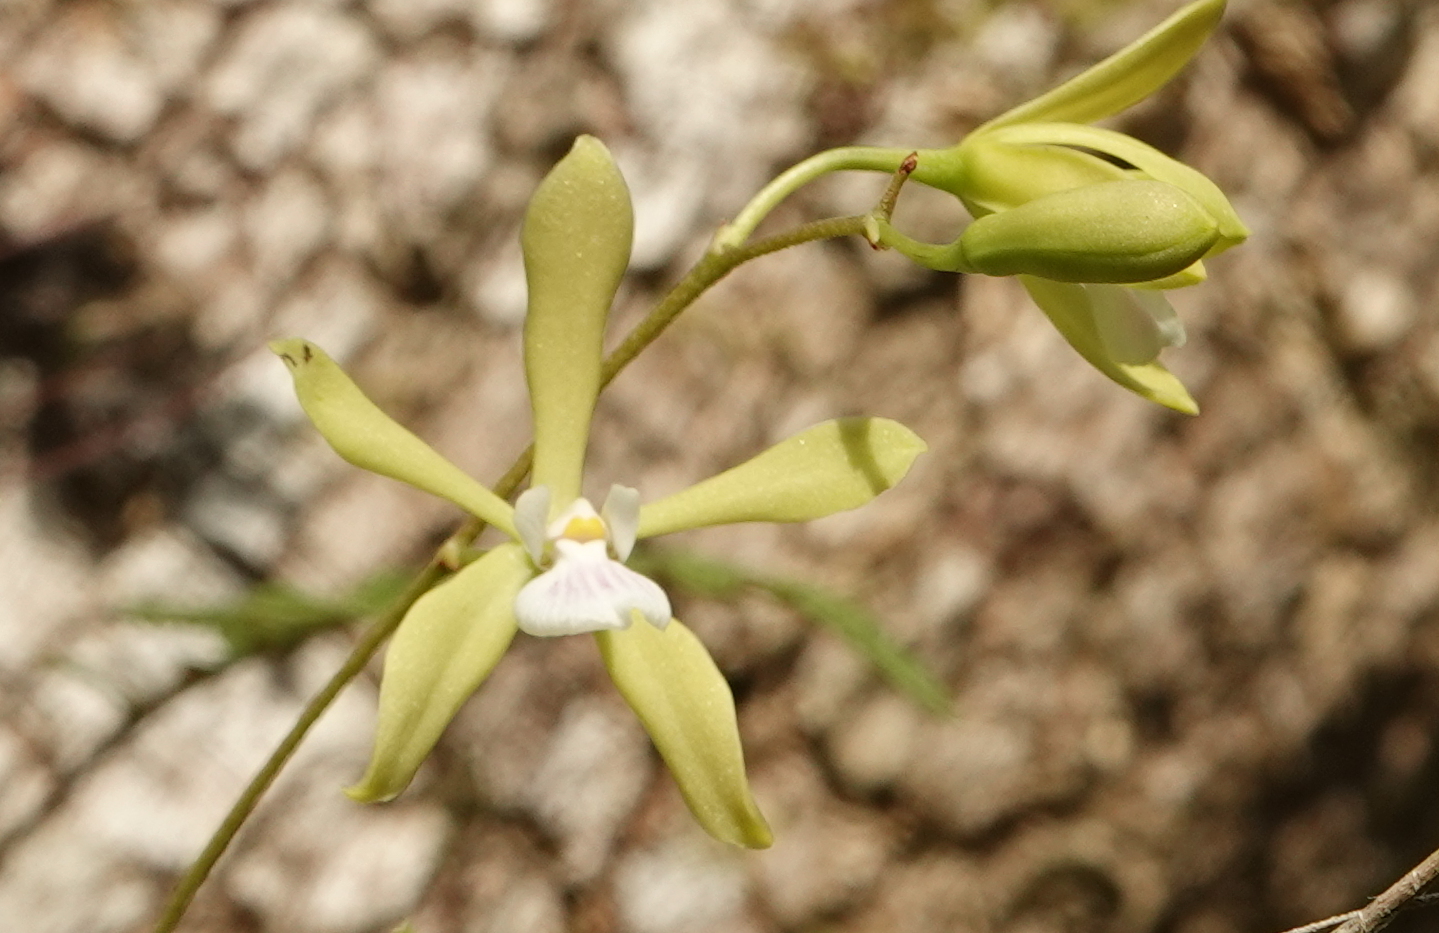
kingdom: Plantae
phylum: Tracheophyta
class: Liliopsida
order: Asparagales
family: Orchidaceae
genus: Encyclia
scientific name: Encyclia tampensis
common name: Florida butterfly orchid
